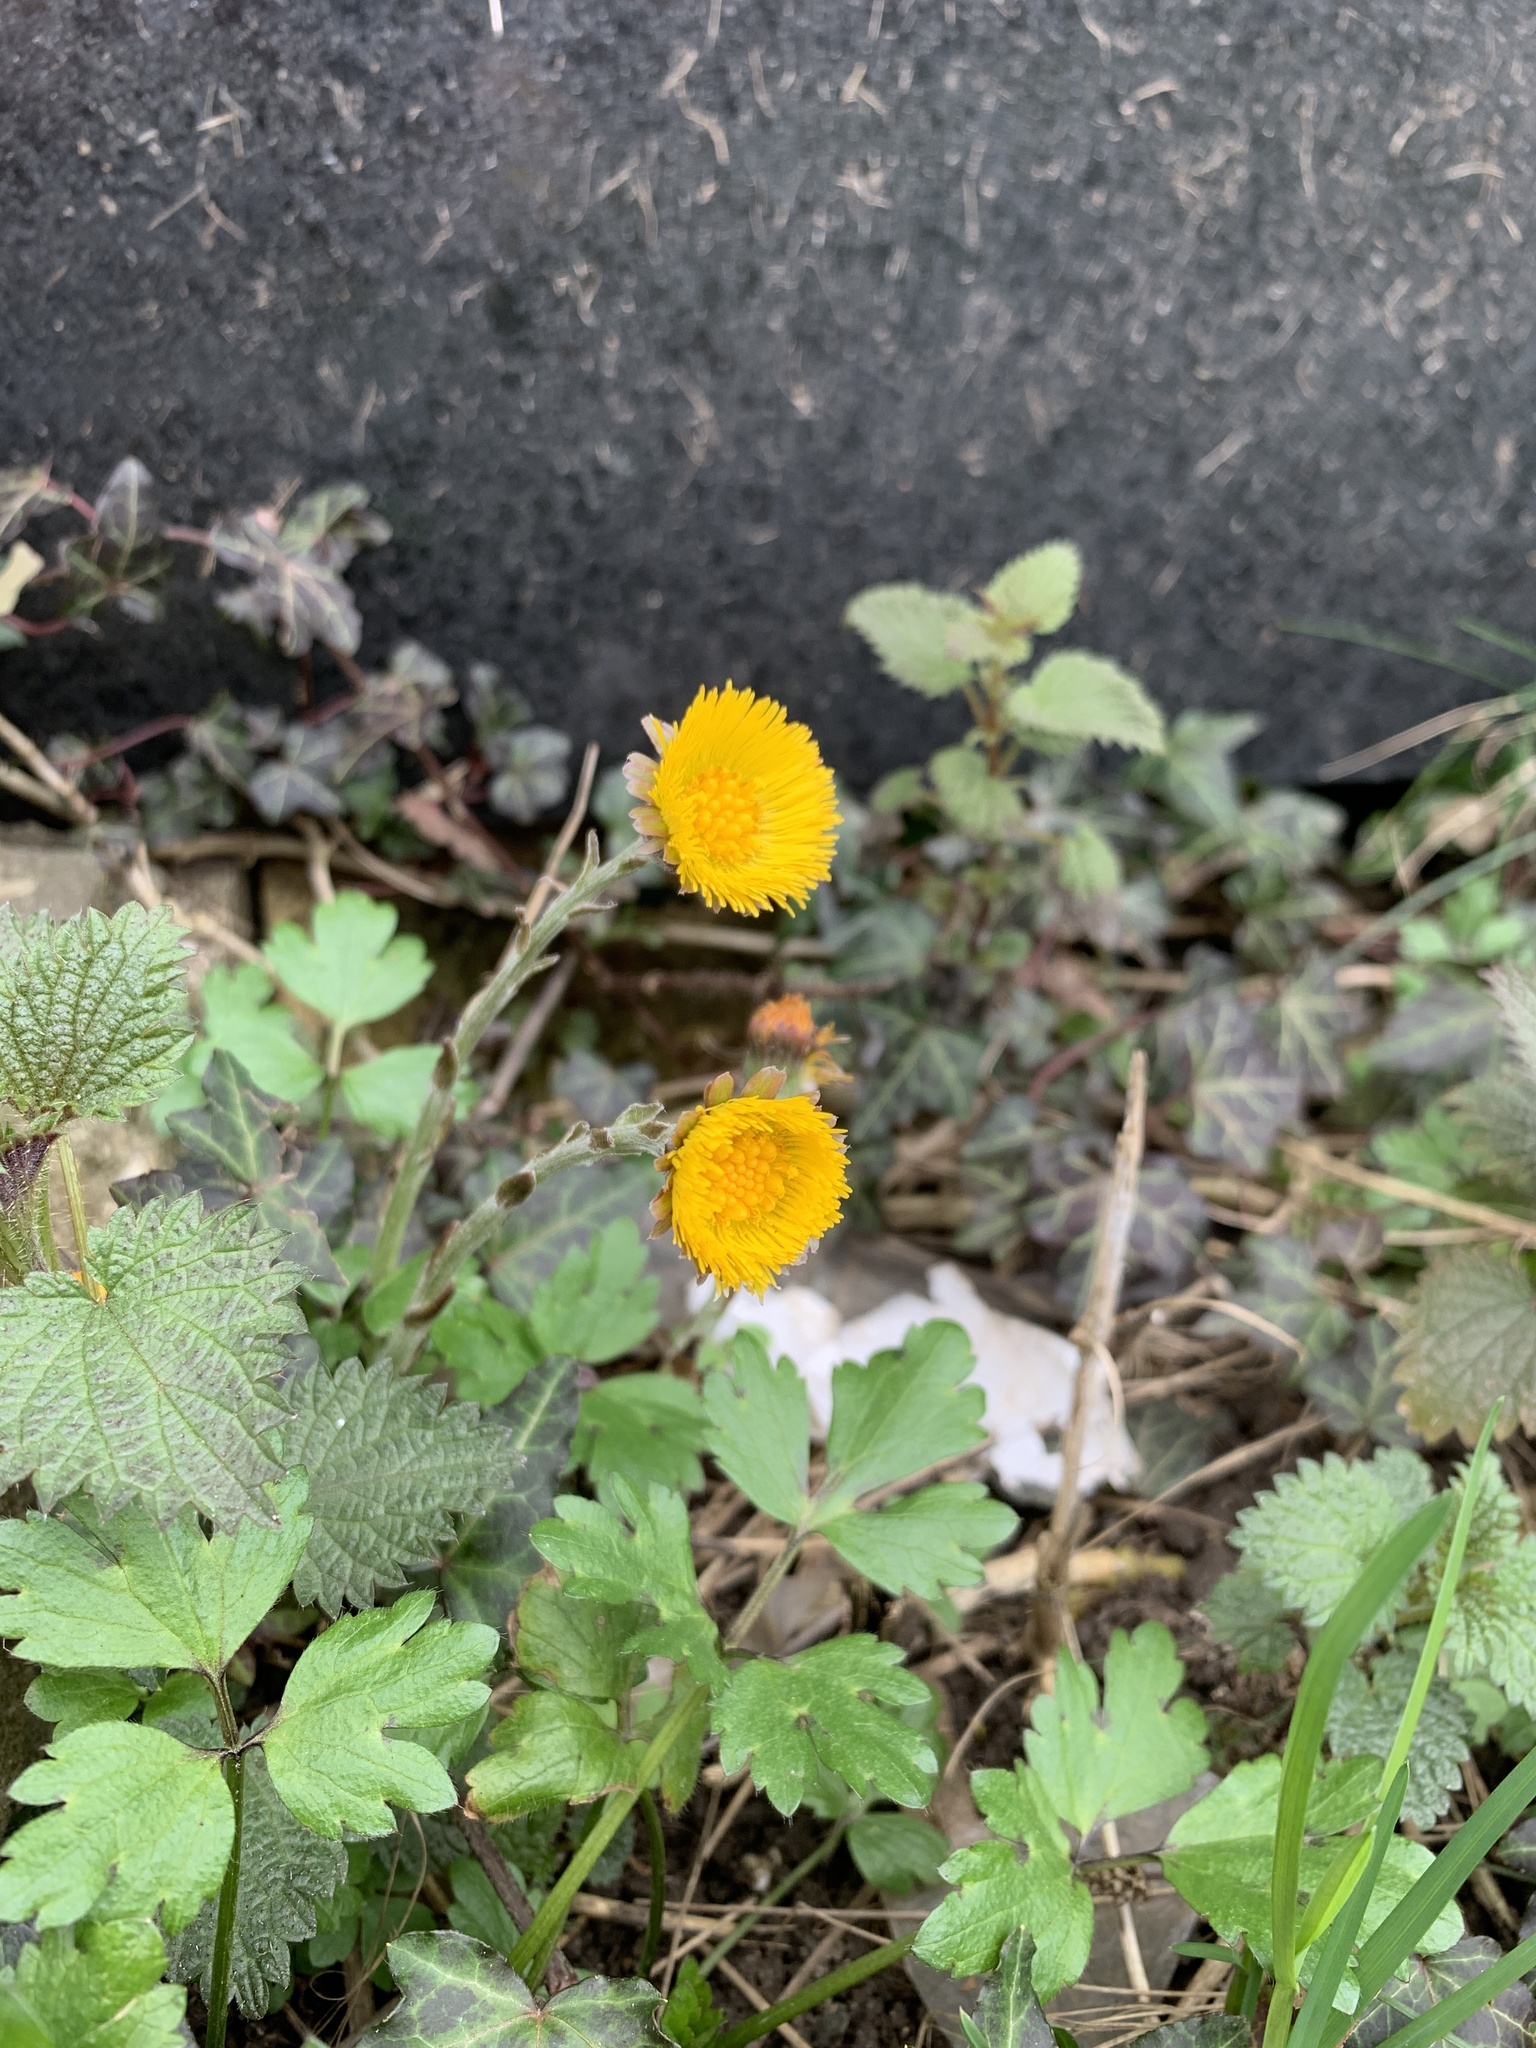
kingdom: Plantae
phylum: Tracheophyta
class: Magnoliopsida
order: Asterales
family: Asteraceae
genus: Tussilago
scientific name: Tussilago farfara
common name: Coltsfoot
